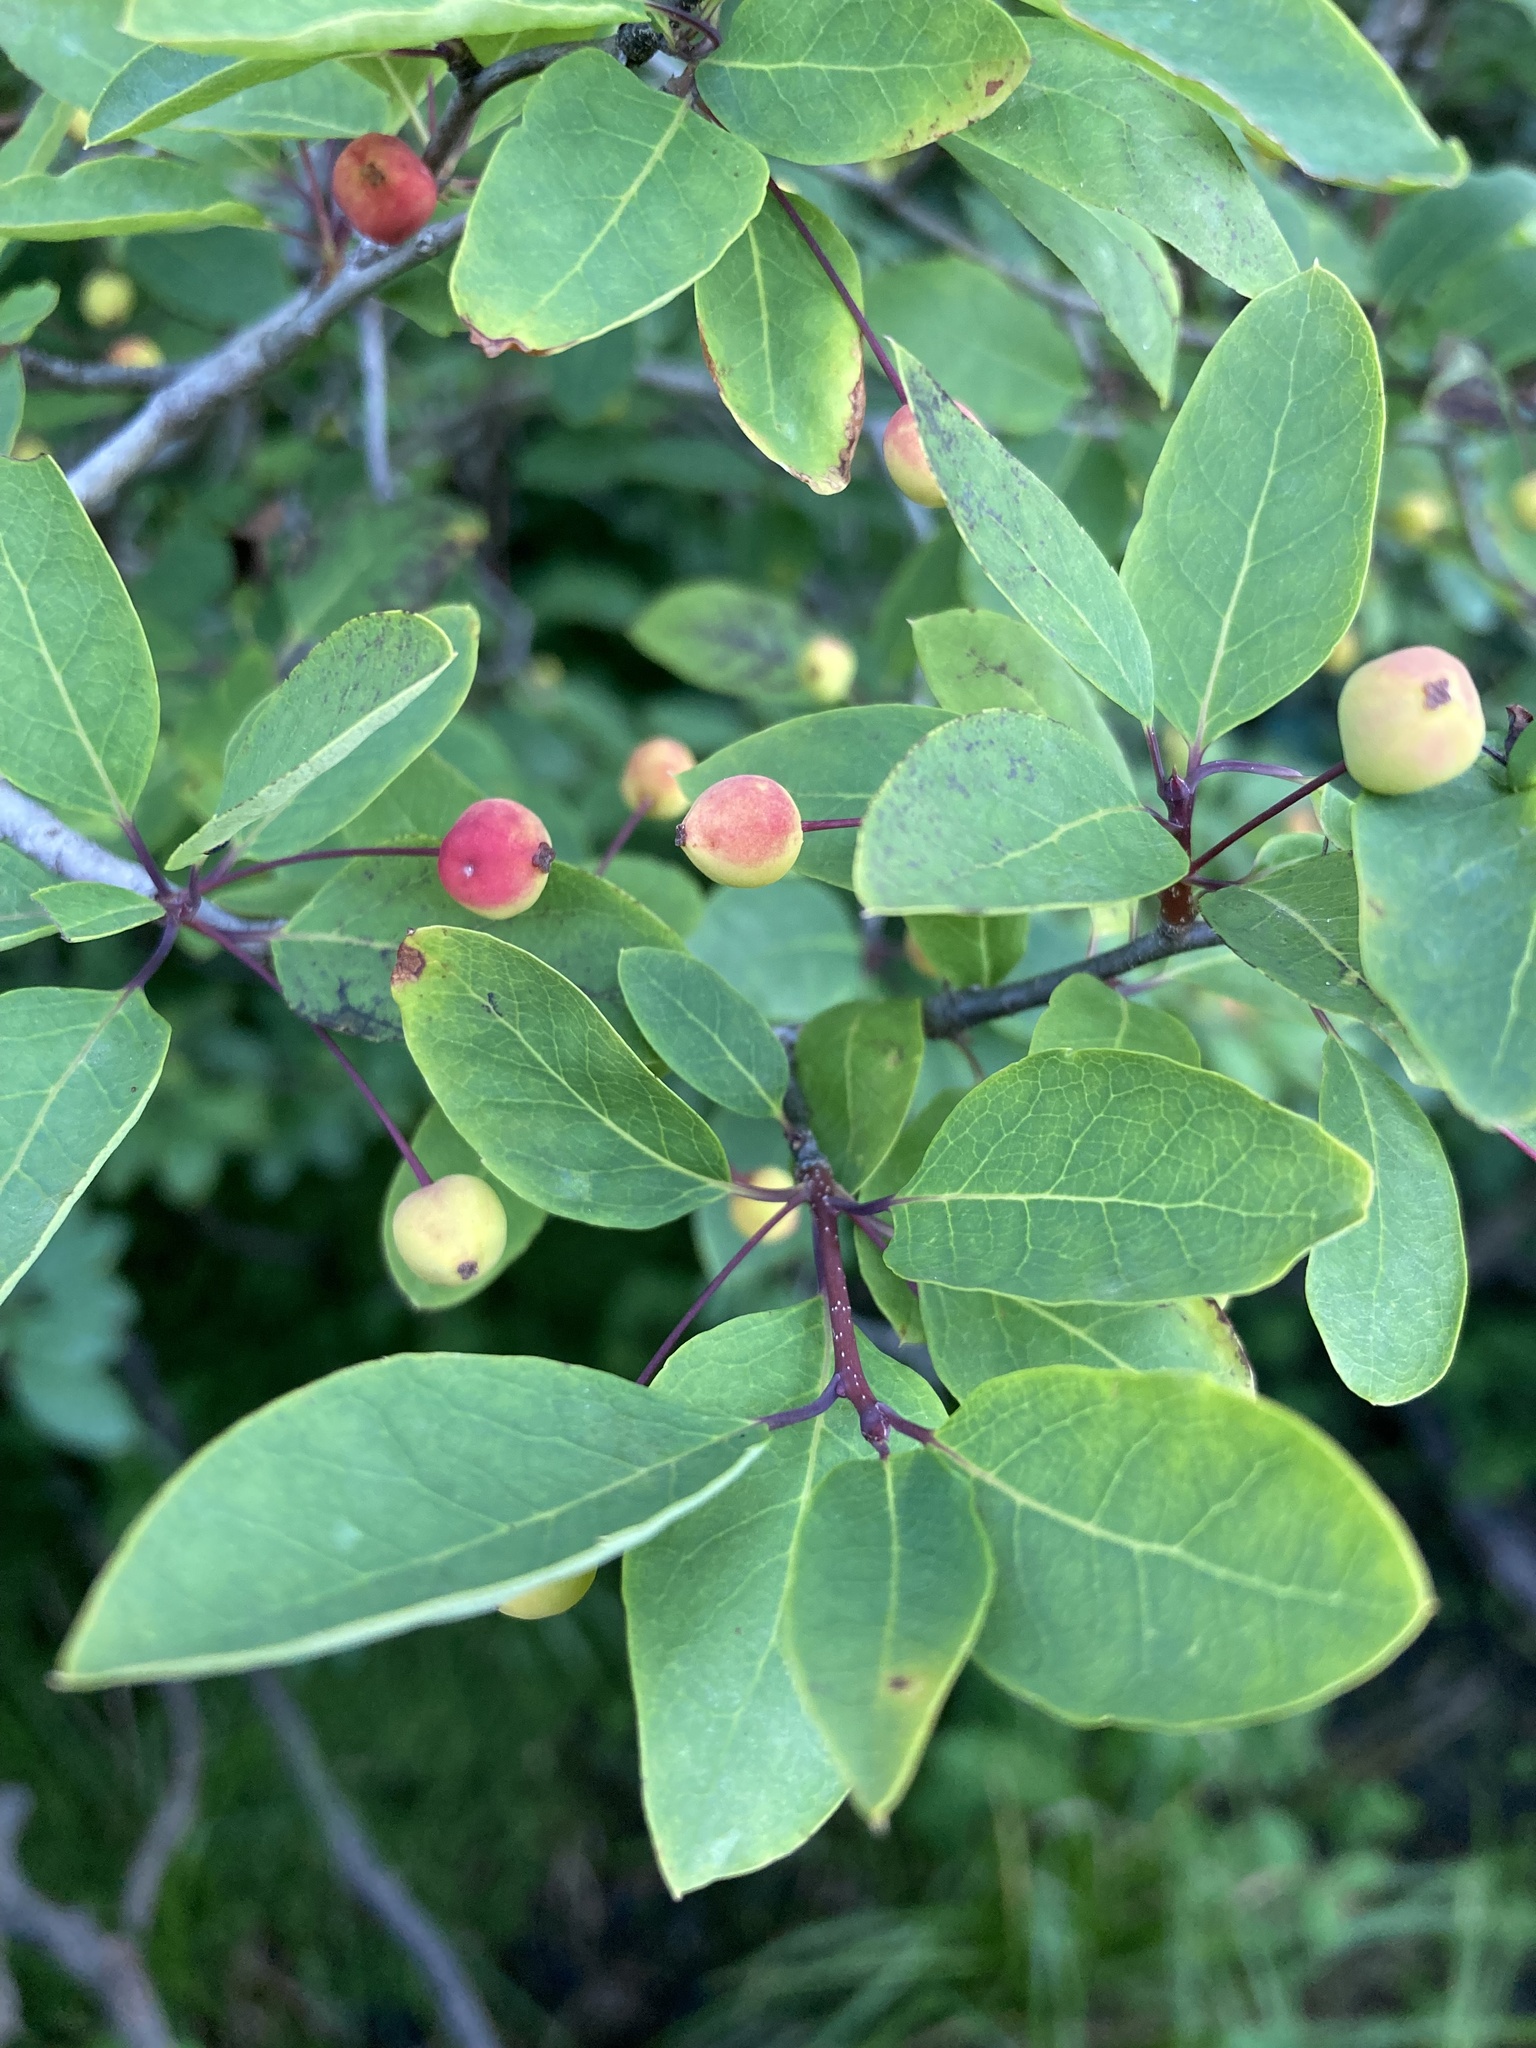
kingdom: Plantae
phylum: Tracheophyta
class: Magnoliopsida
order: Aquifoliales
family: Aquifoliaceae
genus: Ilex
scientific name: Ilex mucronata
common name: Catberry
